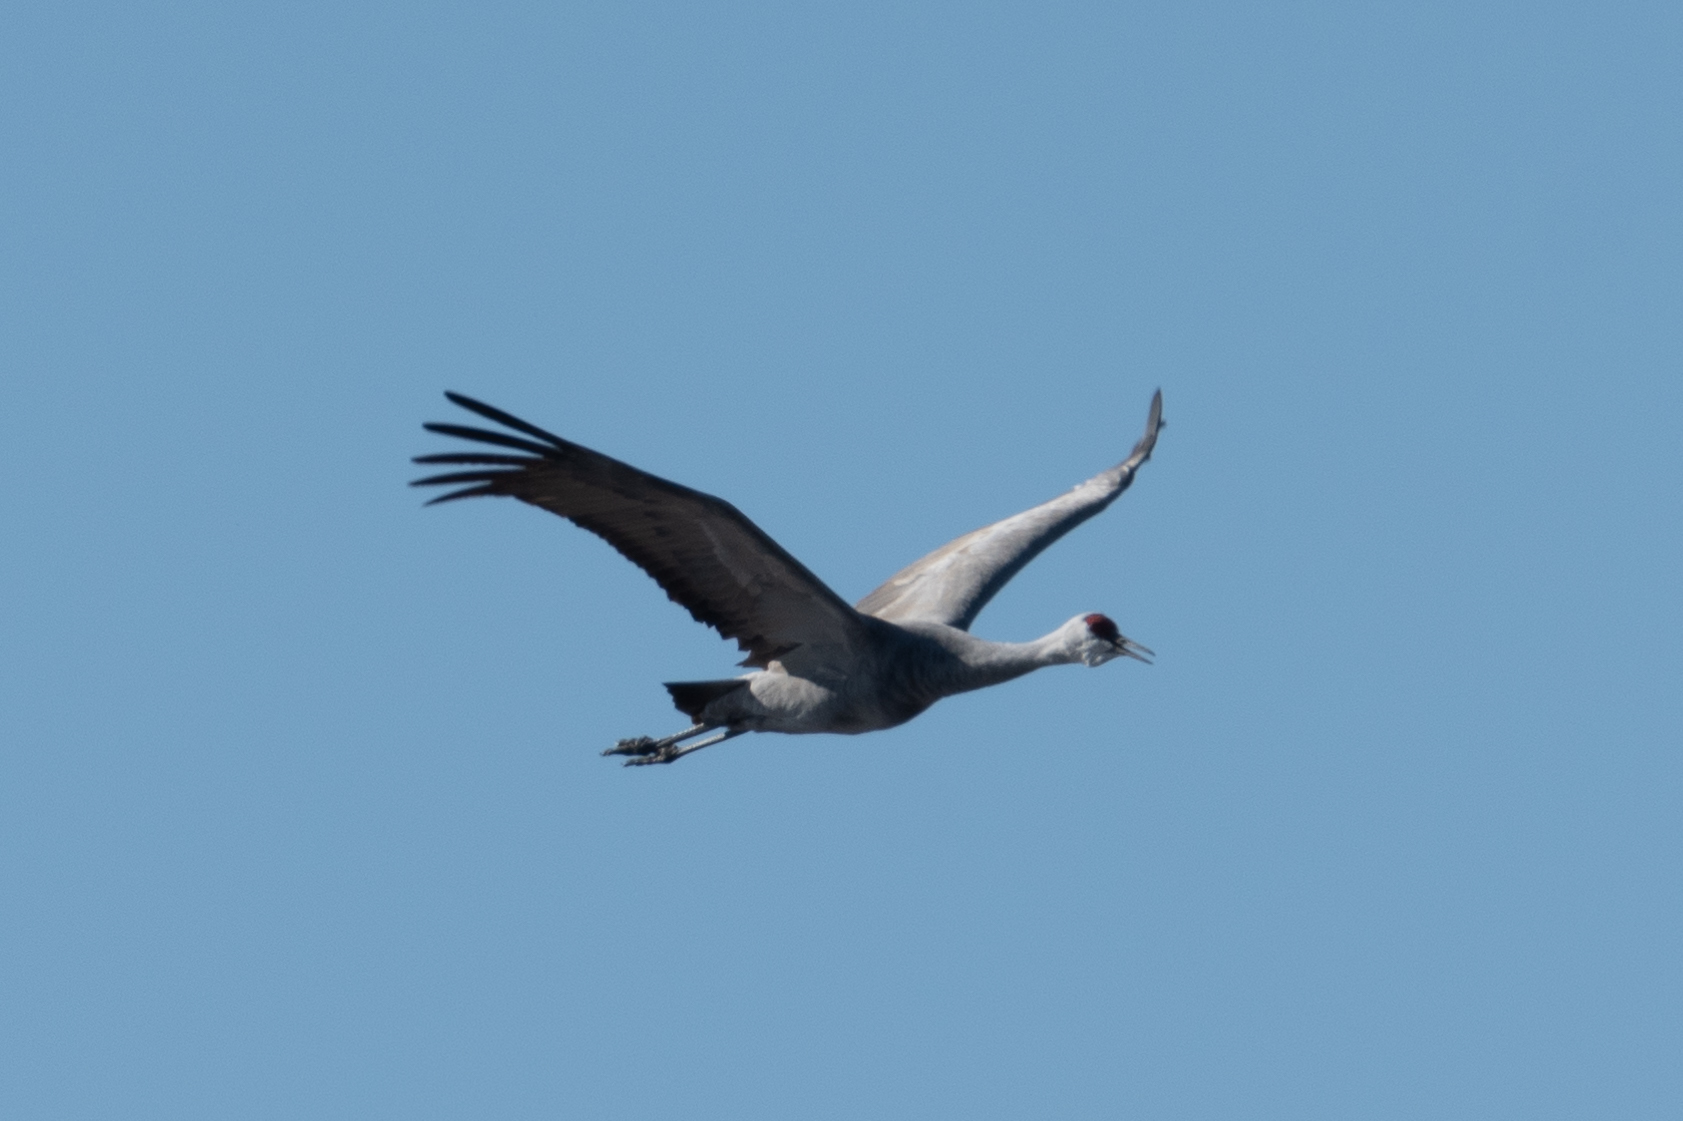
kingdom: Animalia
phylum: Chordata
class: Aves
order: Gruiformes
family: Gruidae
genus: Grus
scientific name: Grus canadensis
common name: Sandhill crane
